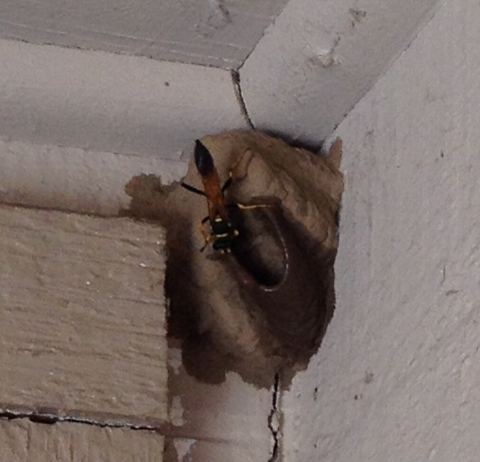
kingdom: Animalia
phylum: Arthropoda
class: Insecta
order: Hymenoptera
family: Sphecidae
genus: Sceliphron
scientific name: Sceliphron caementarium
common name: Mud dauber
